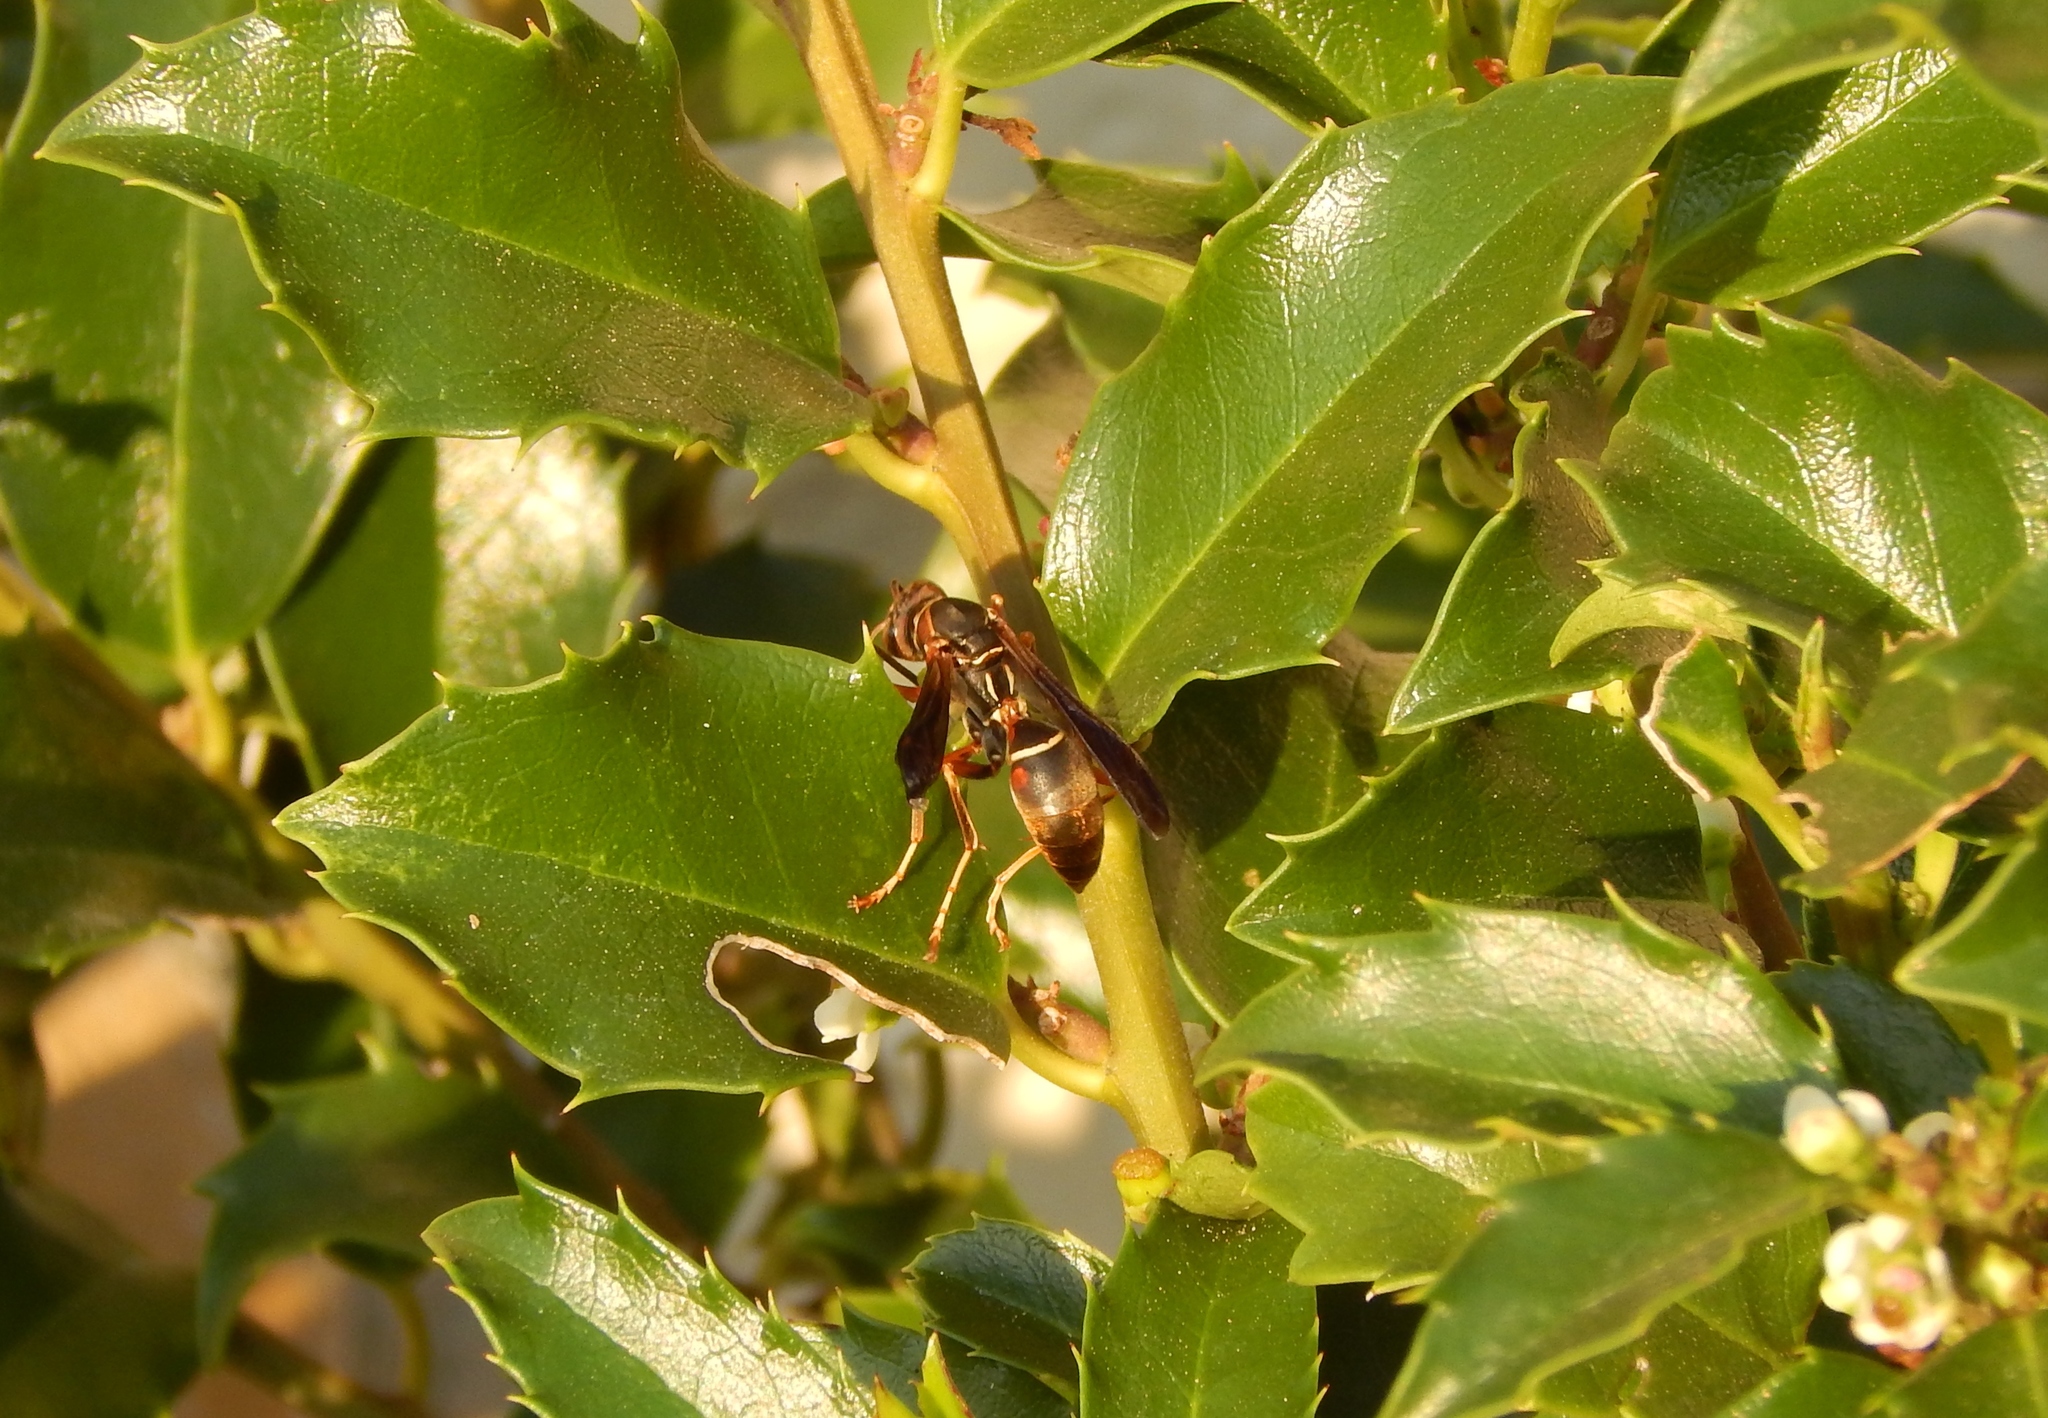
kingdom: Animalia
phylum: Arthropoda
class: Insecta
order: Hymenoptera
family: Eumenidae
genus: Polistes
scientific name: Polistes fuscatus
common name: Dark paper wasp
